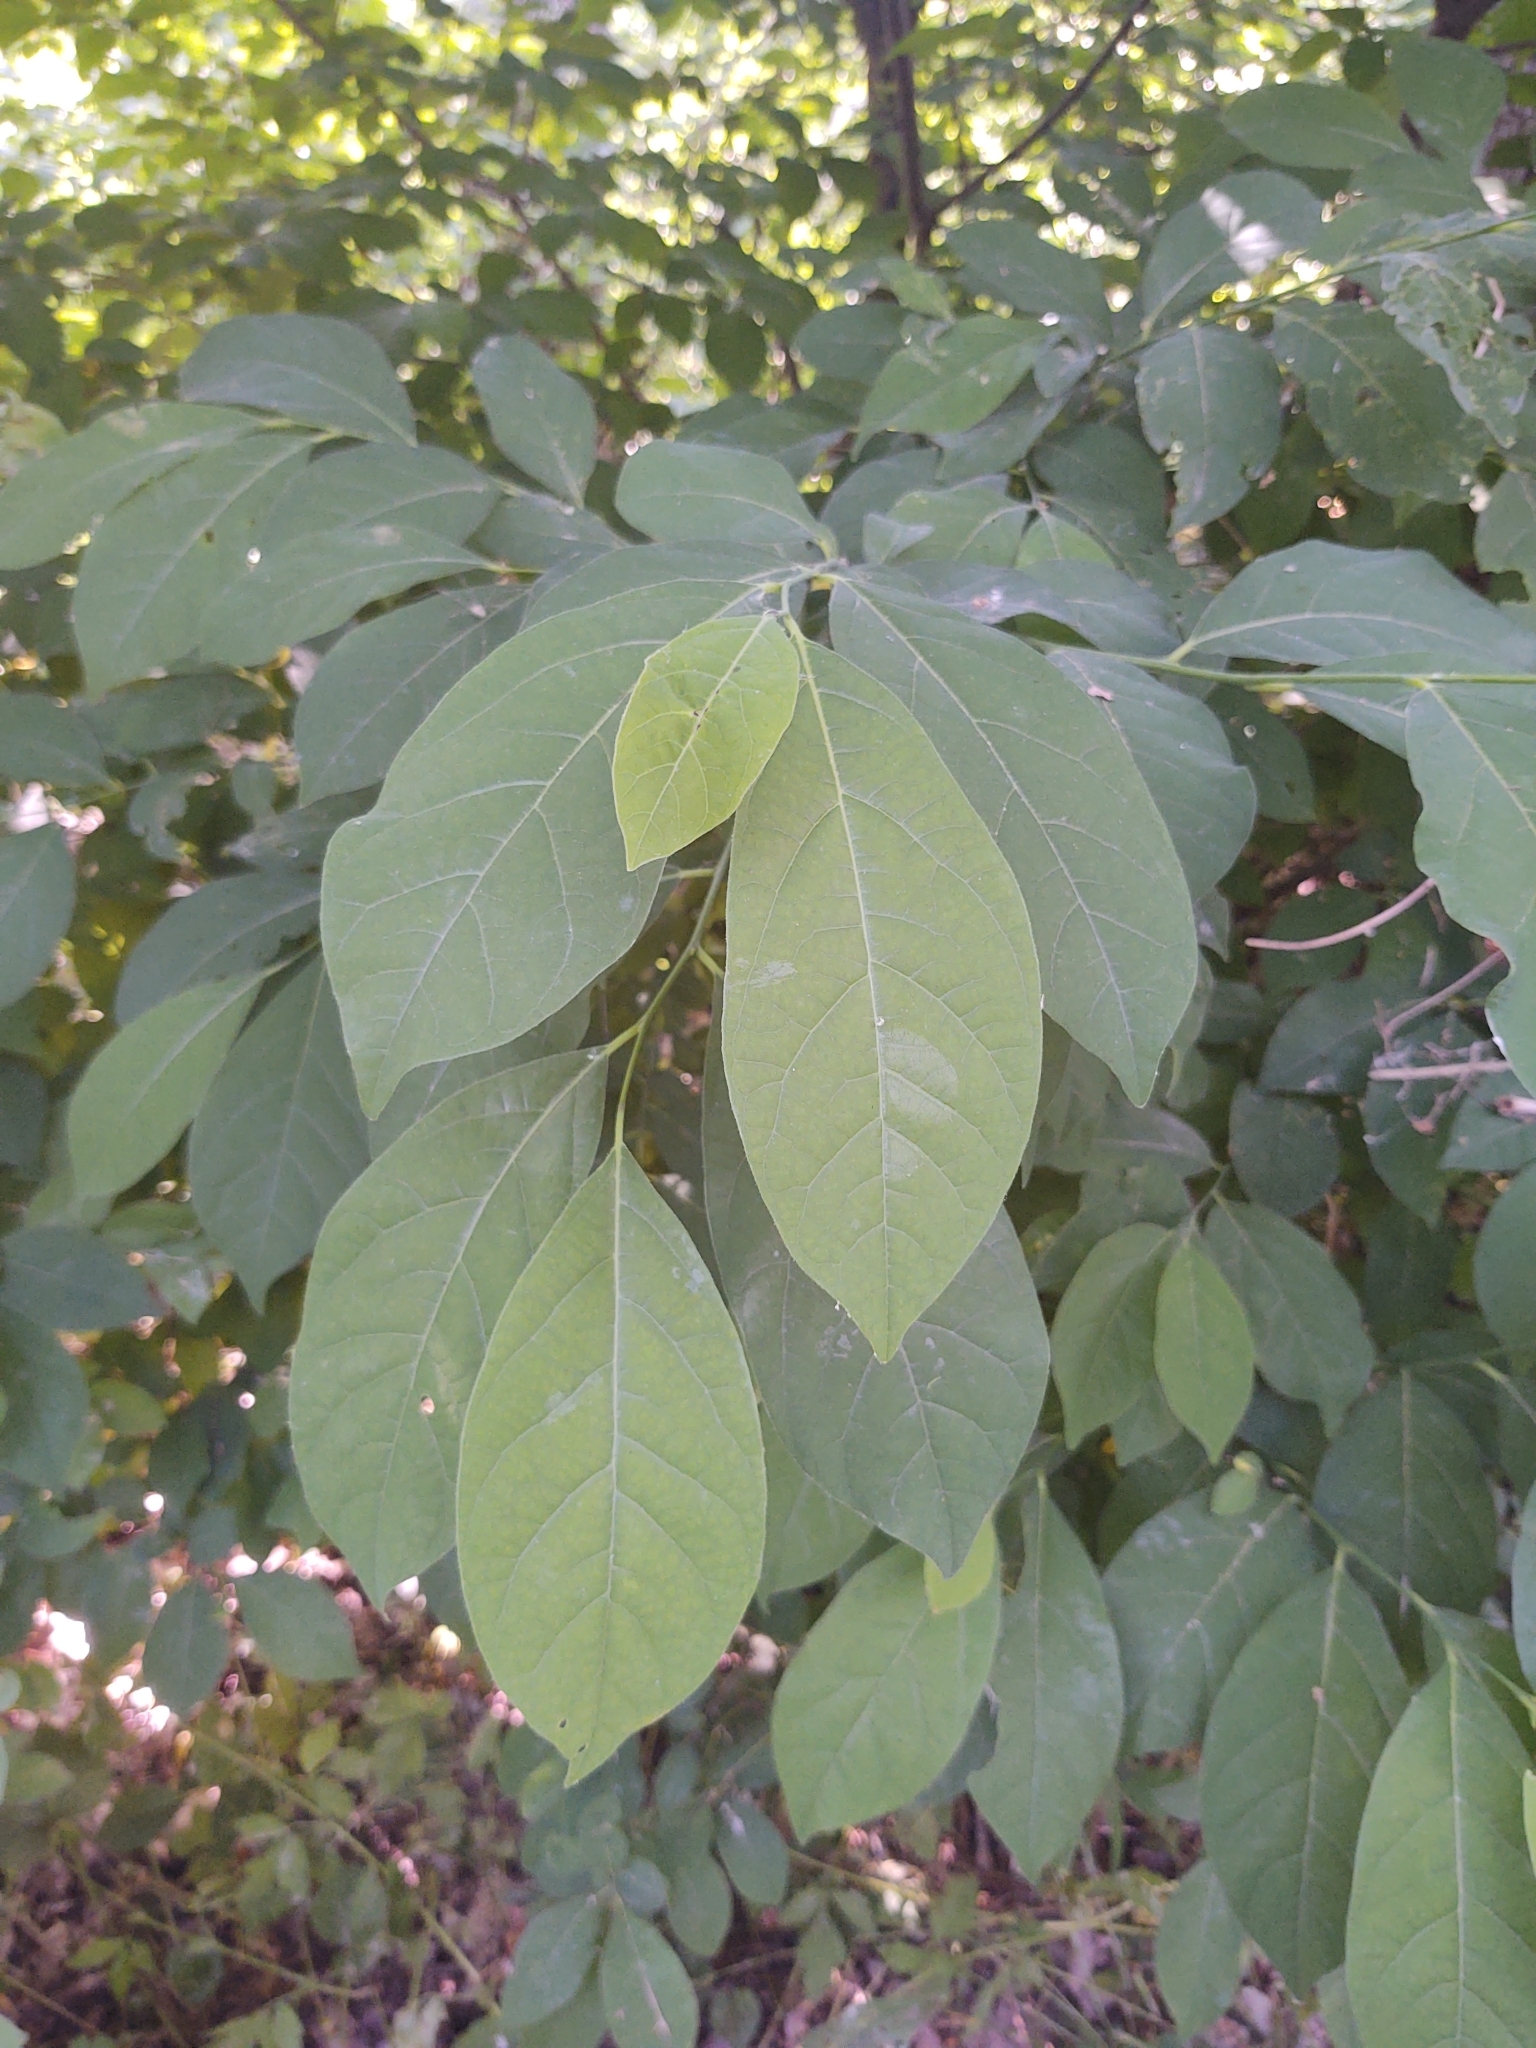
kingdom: Plantae
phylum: Tracheophyta
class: Magnoliopsida
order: Laurales
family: Lauraceae
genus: Lindera
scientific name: Lindera benzoin
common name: Spicebush
